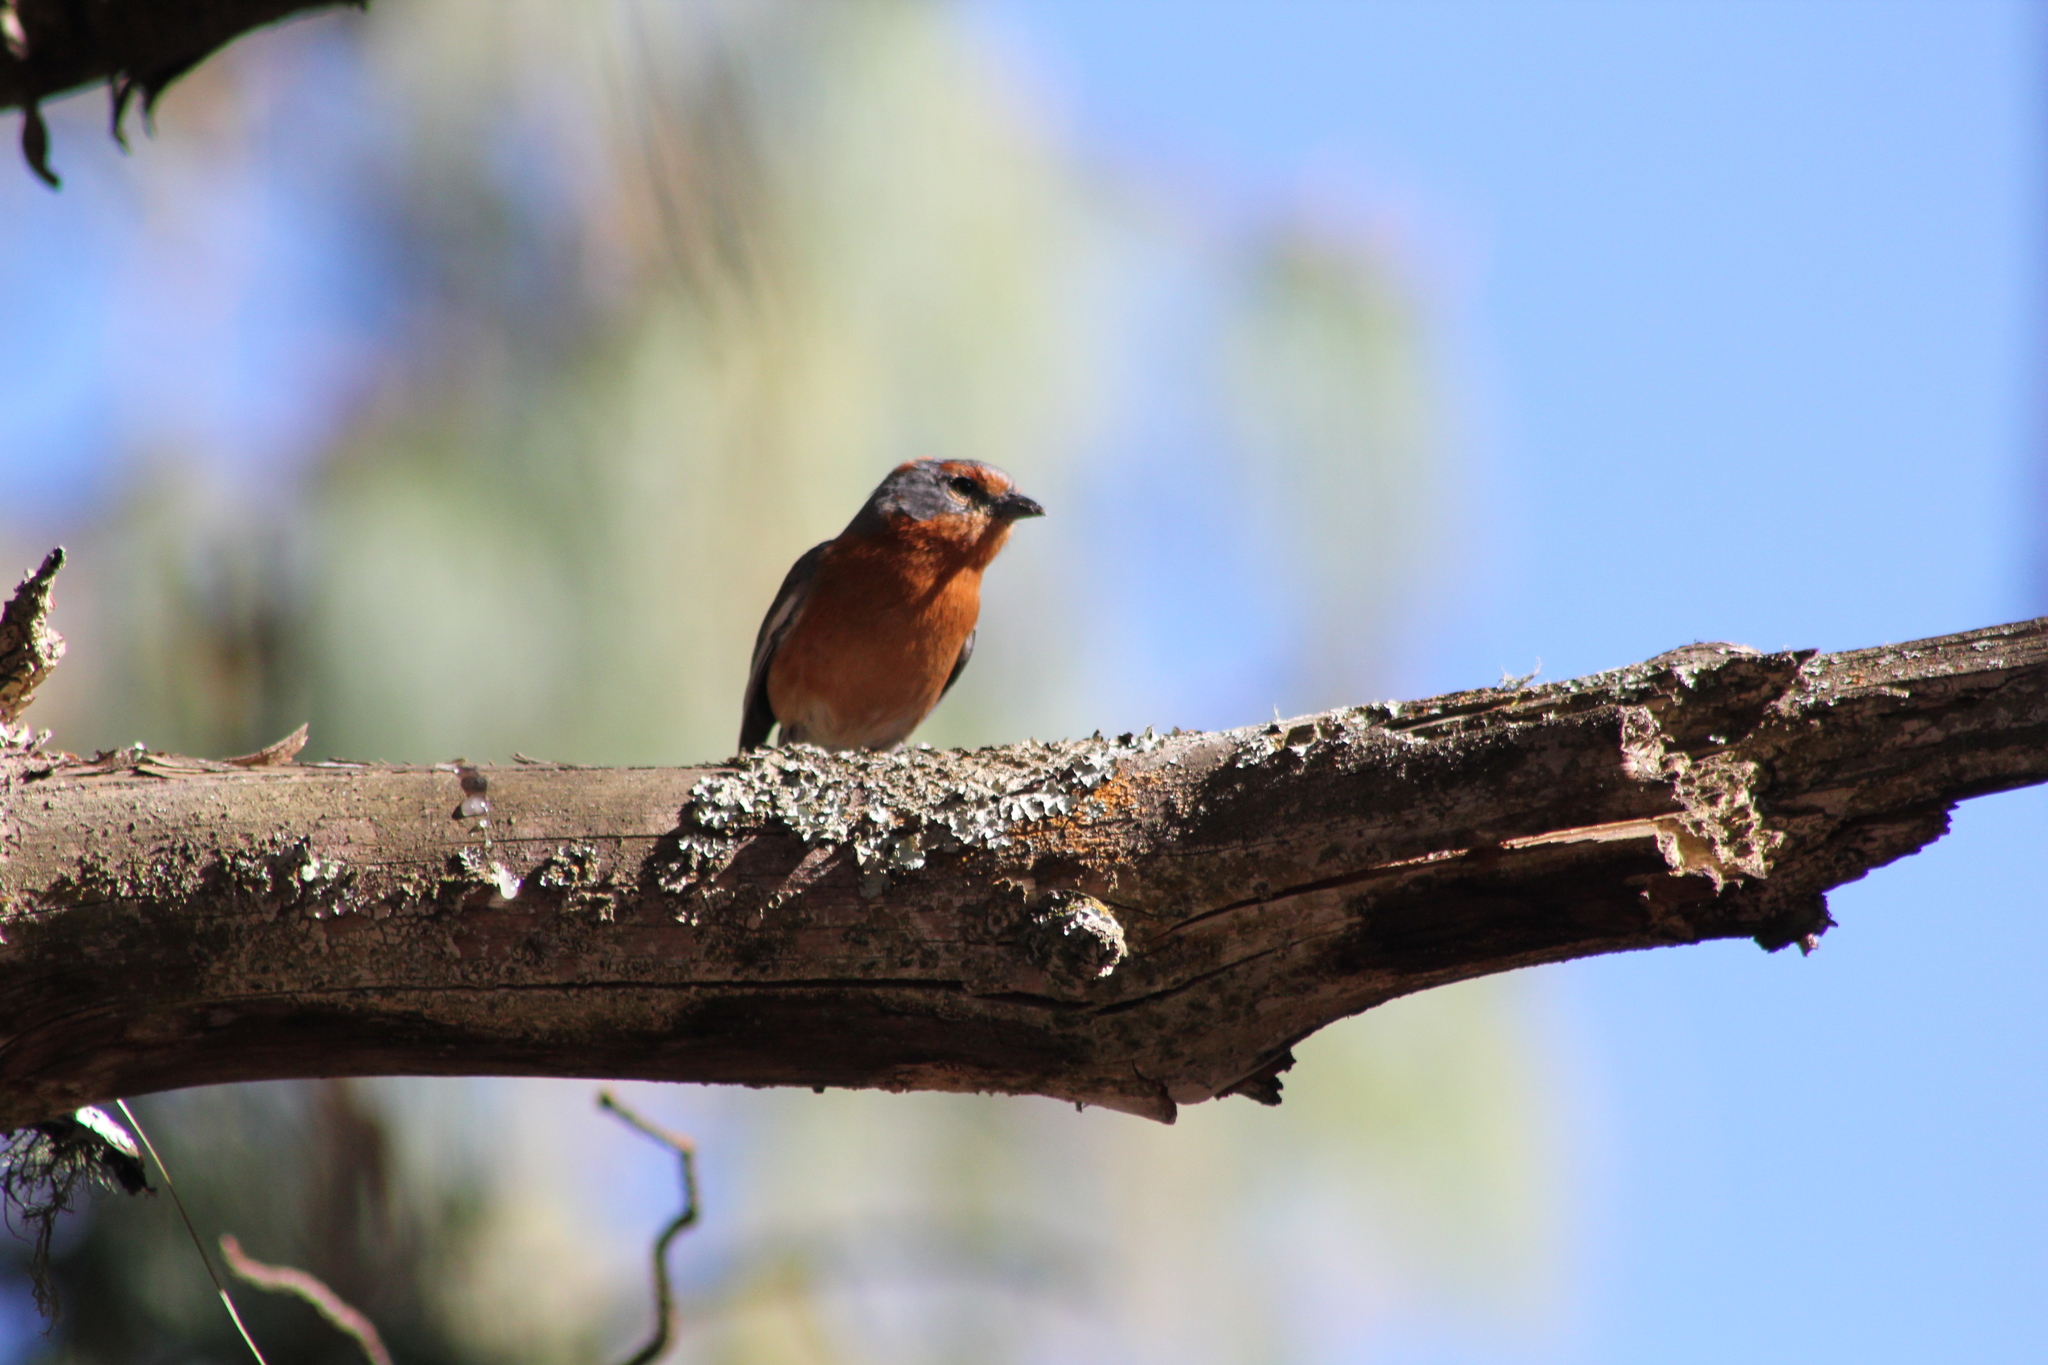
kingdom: Animalia
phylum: Chordata
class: Aves
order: Passeriformes
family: Thraupidae
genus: Microspingus
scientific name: Microspingus erythrophrys
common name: Rusty-browed warbling-finch
